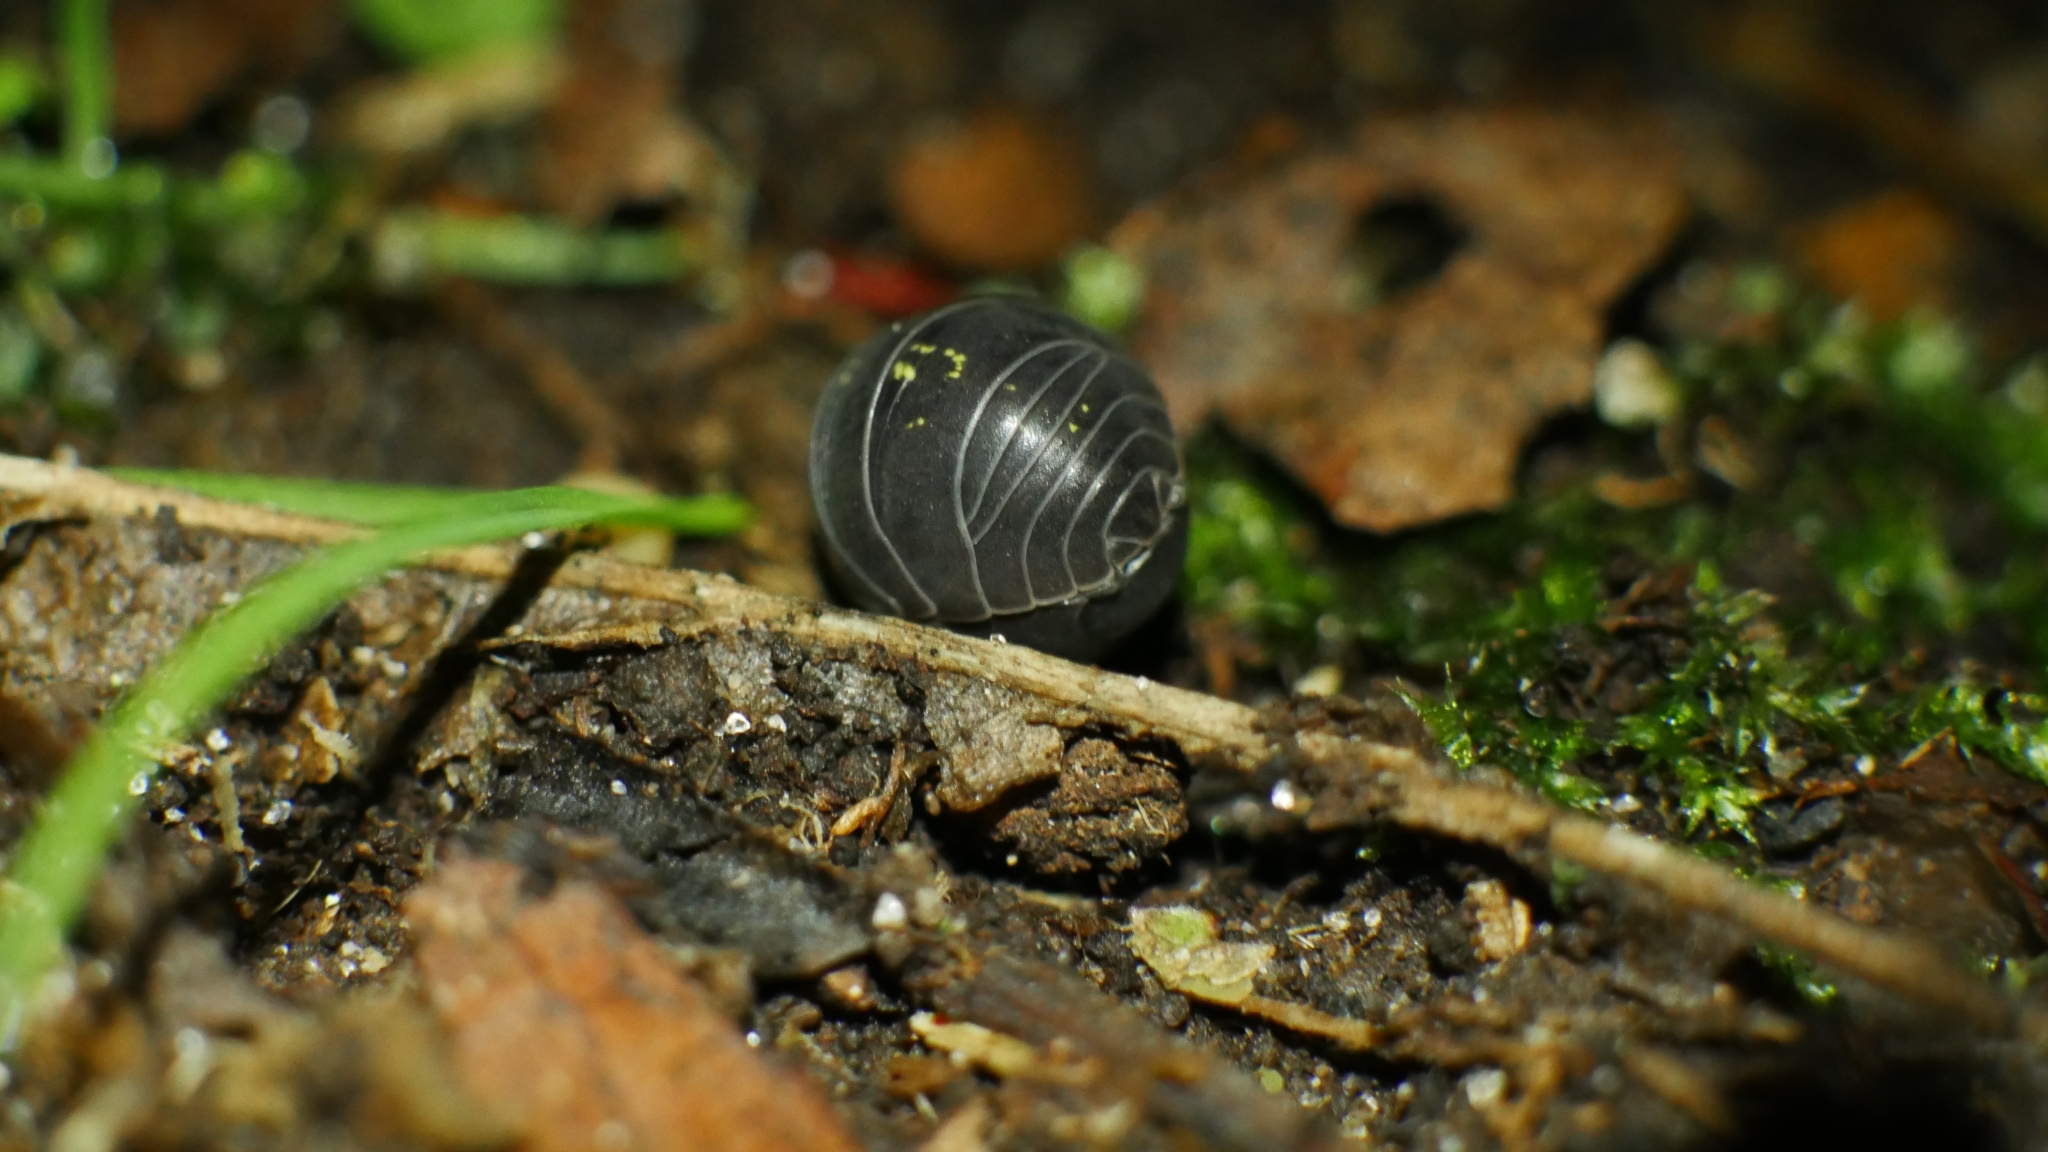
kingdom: Animalia
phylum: Arthropoda
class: Malacostraca
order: Isopoda
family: Armadillidiidae
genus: Armadillidium
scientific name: Armadillidium vulgare
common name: Common pill woodlouse
